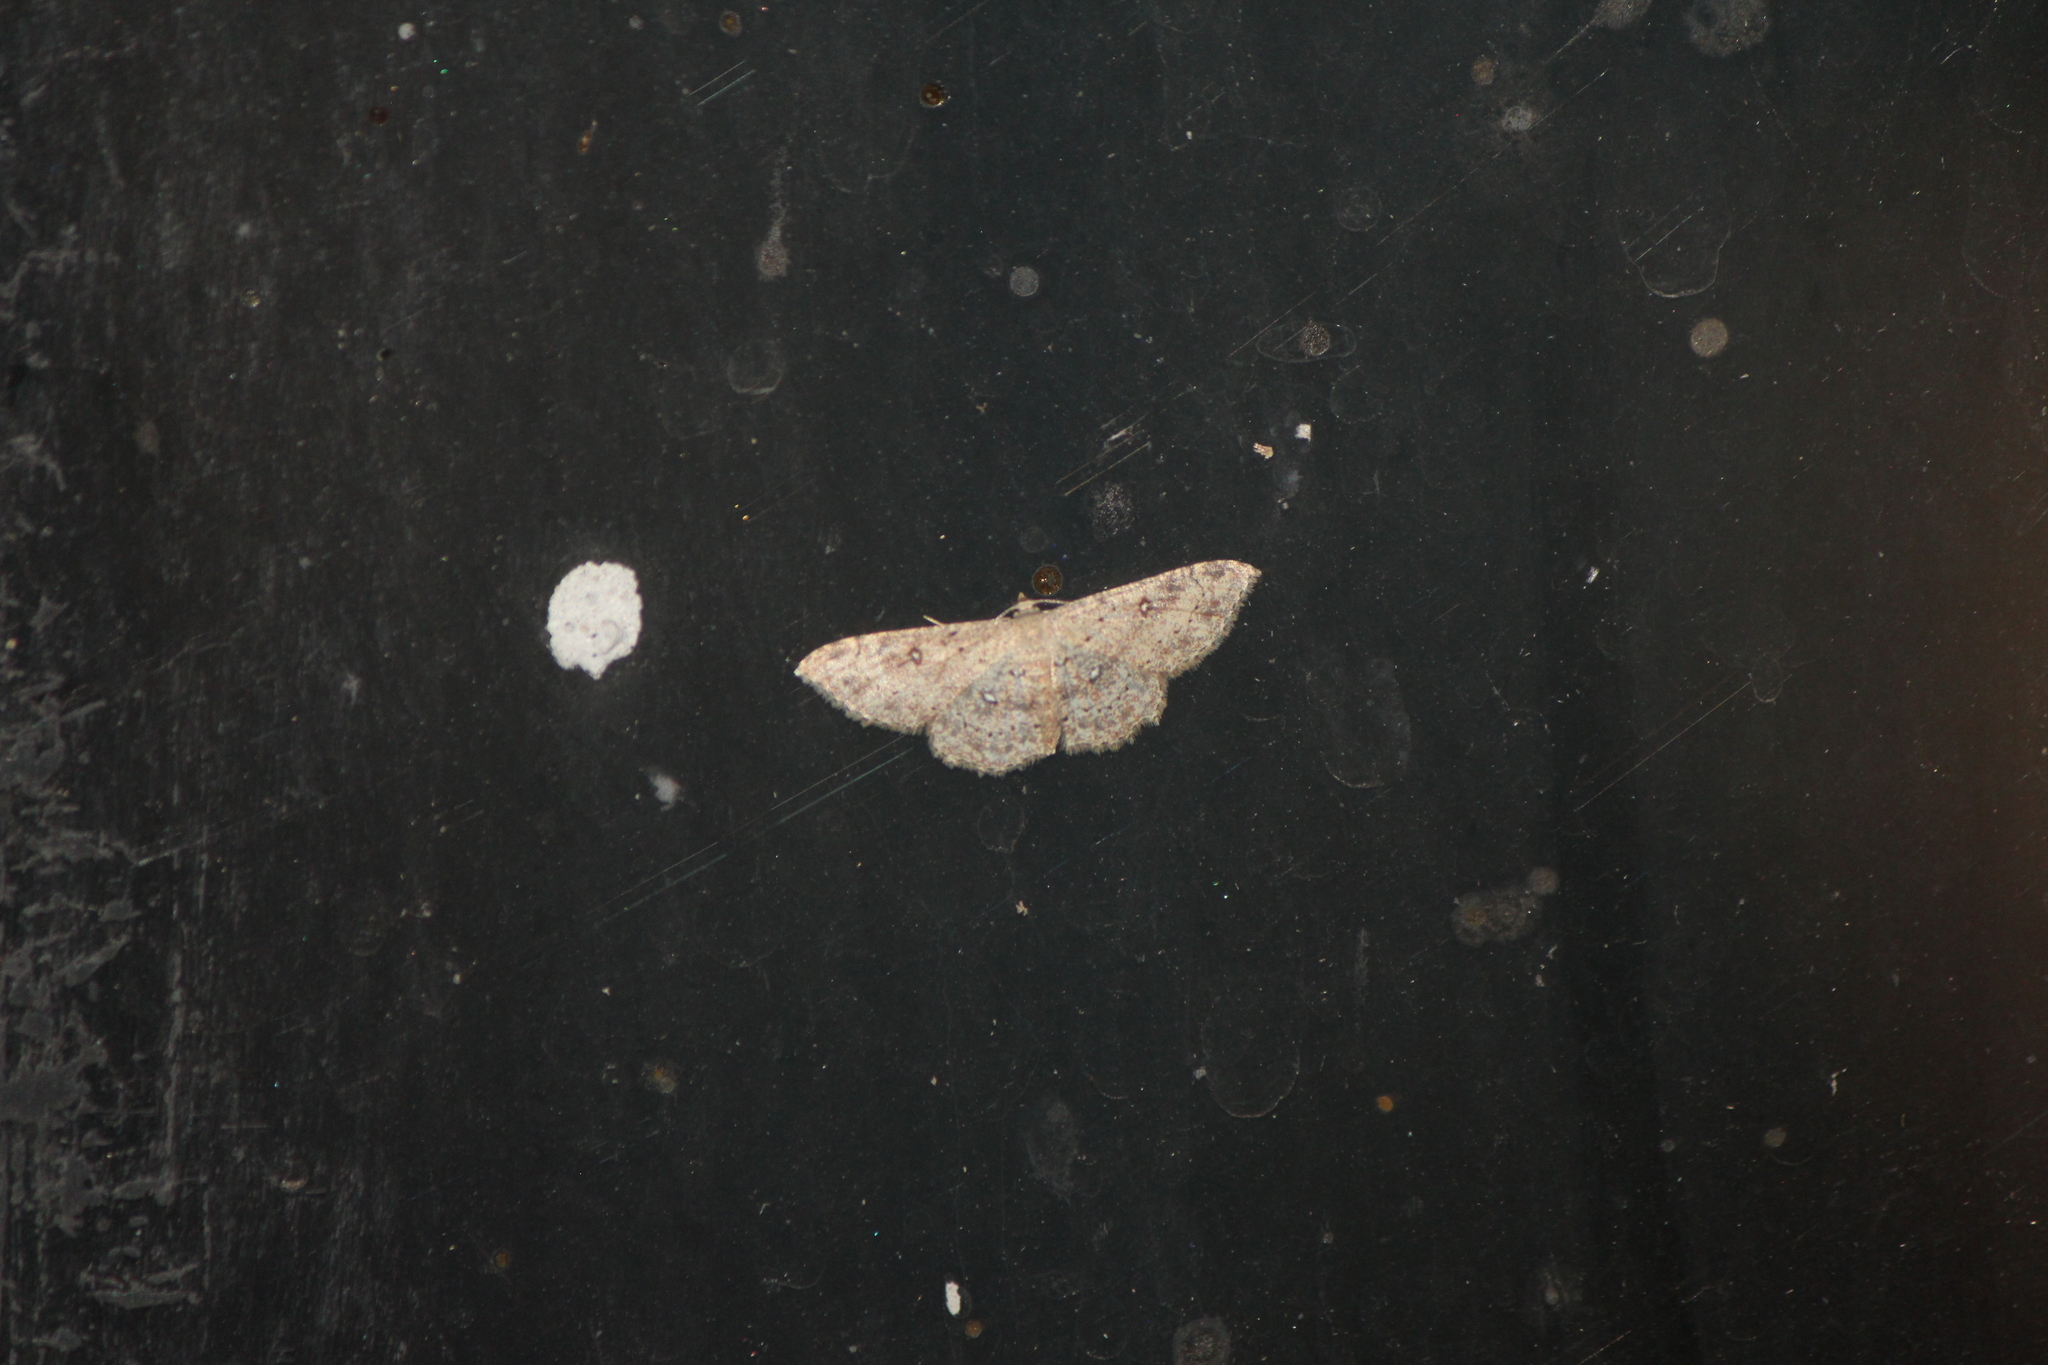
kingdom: Animalia
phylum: Arthropoda
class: Insecta
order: Lepidoptera
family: Geometridae
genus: Cyclophora
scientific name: Cyclophora nanaria
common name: Cankerworm
